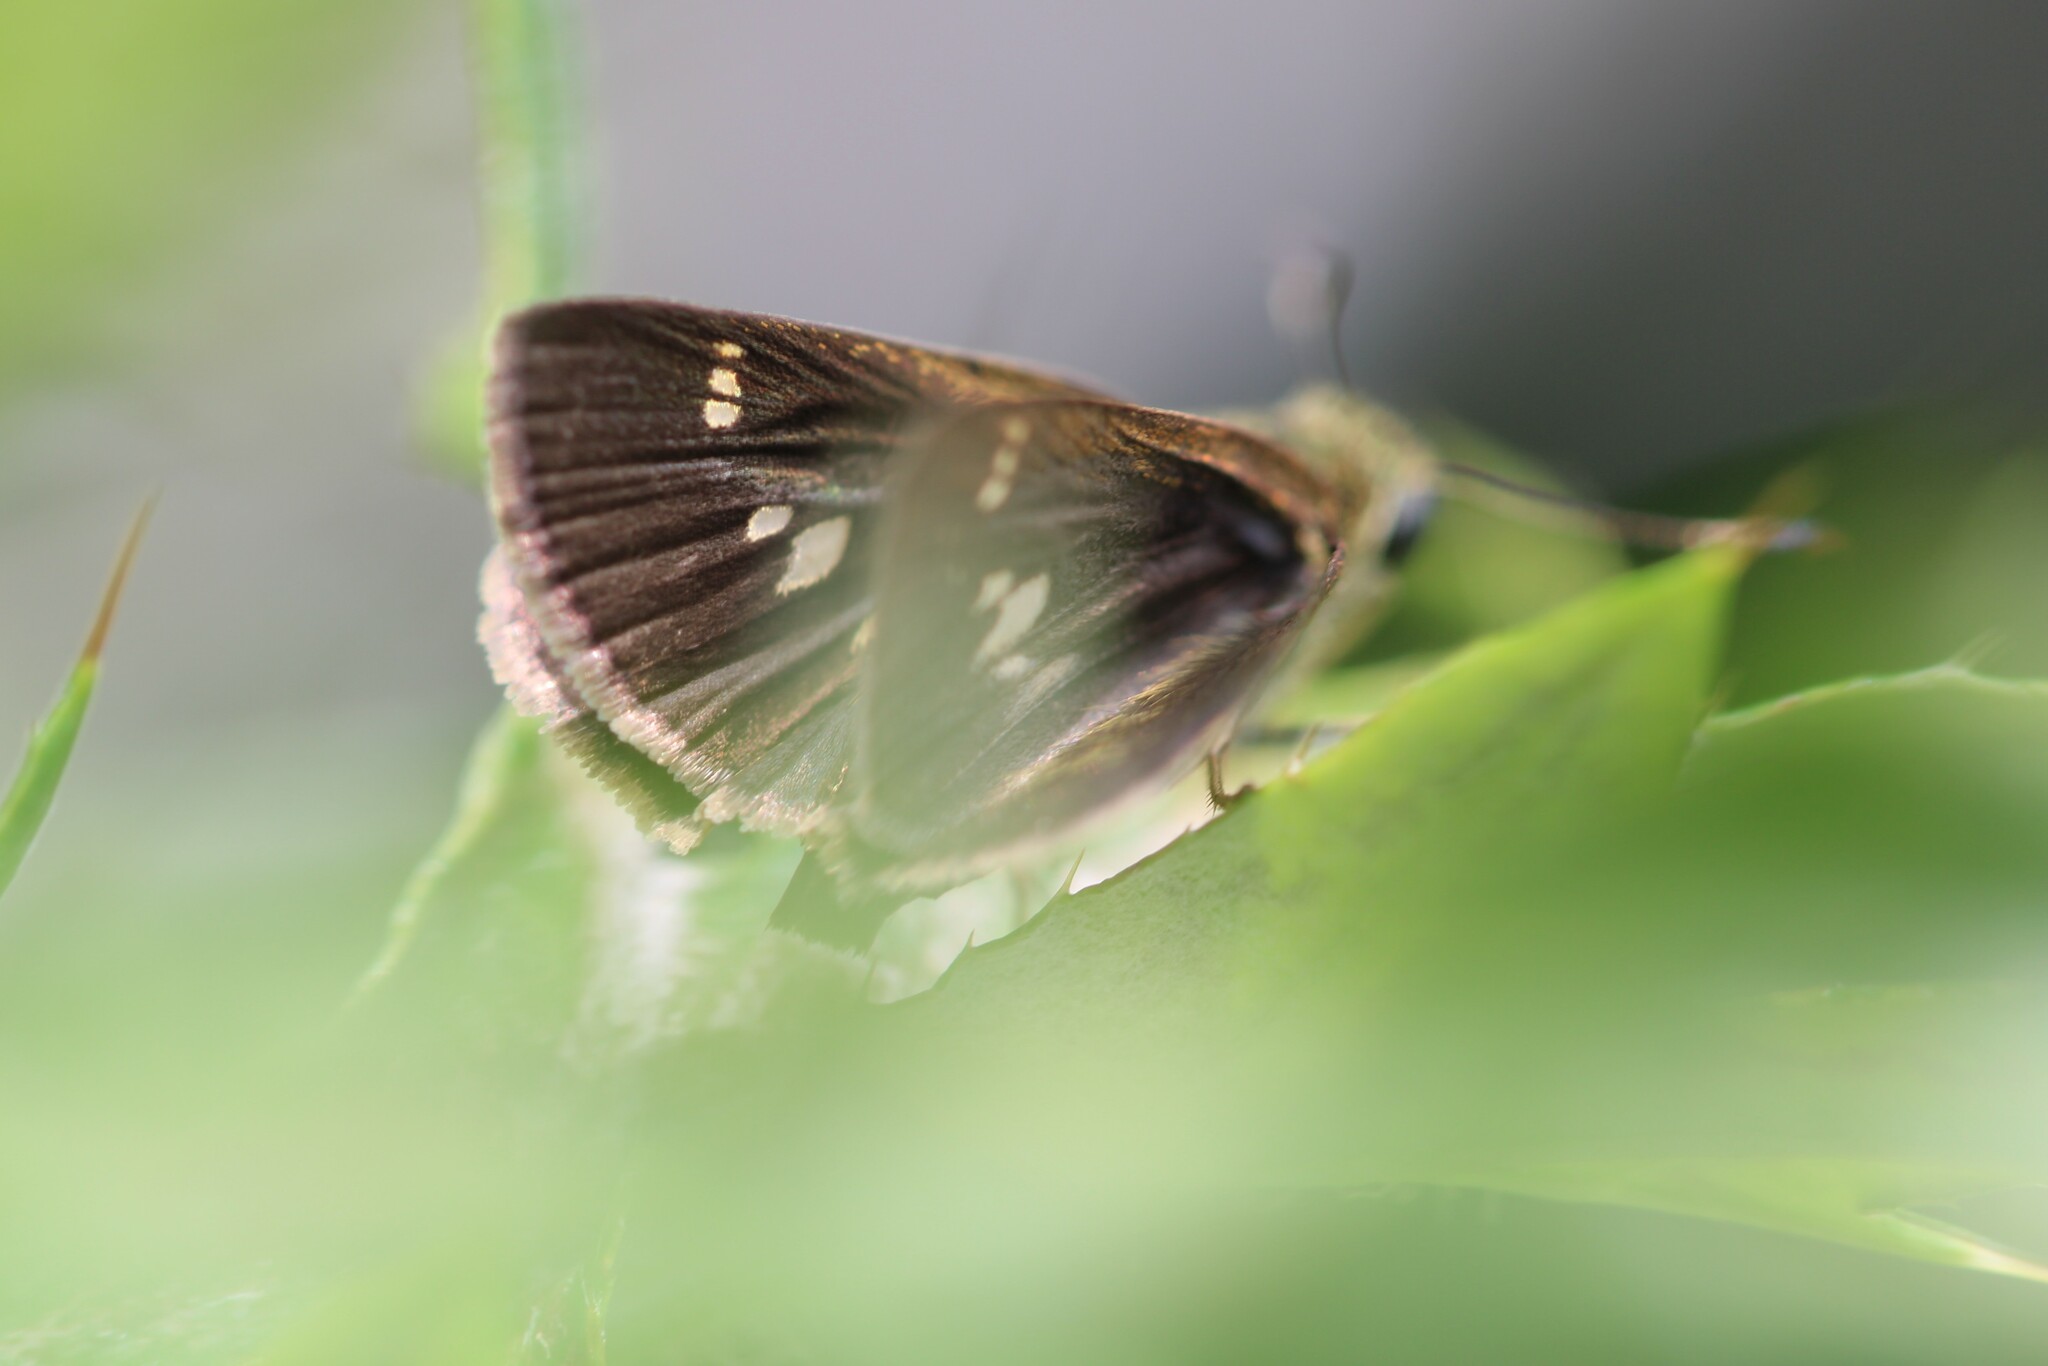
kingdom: Animalia
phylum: Arthropoda
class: Insecta
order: Lepidoptera
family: Hesperiidae
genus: Vernia
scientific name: Vernia verna
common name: Little glassywing
